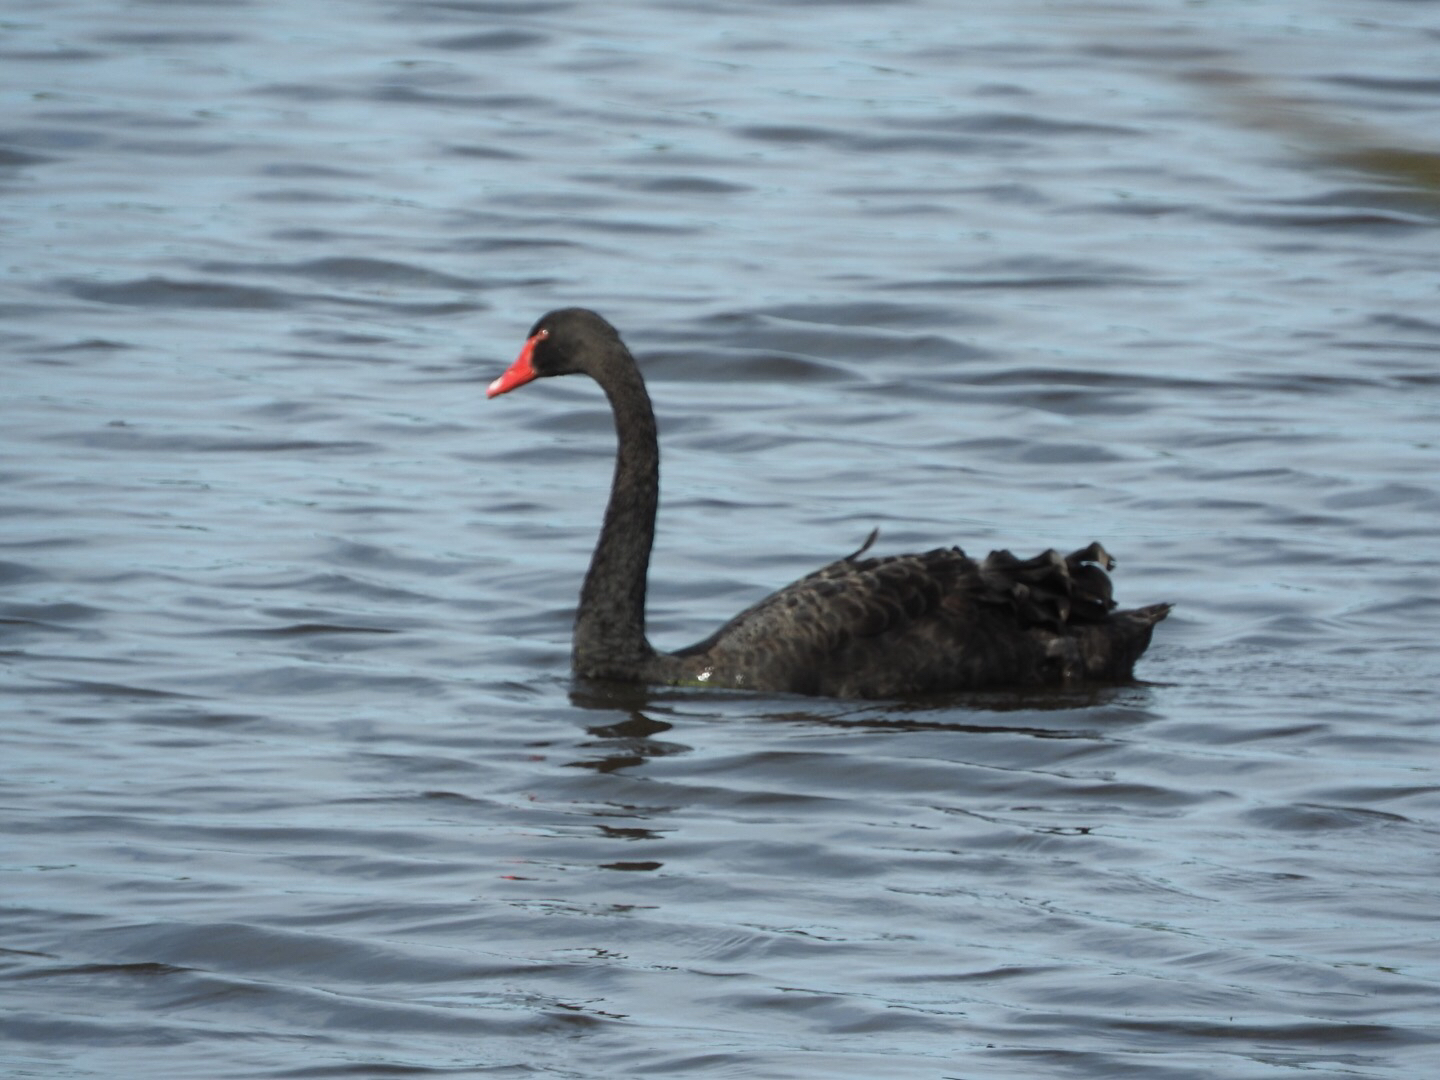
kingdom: Animalia
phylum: Chordata
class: Aves
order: Anseriformes
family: Anatidae
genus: Cygnus
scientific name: Cygnus atratus
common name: Black swan
